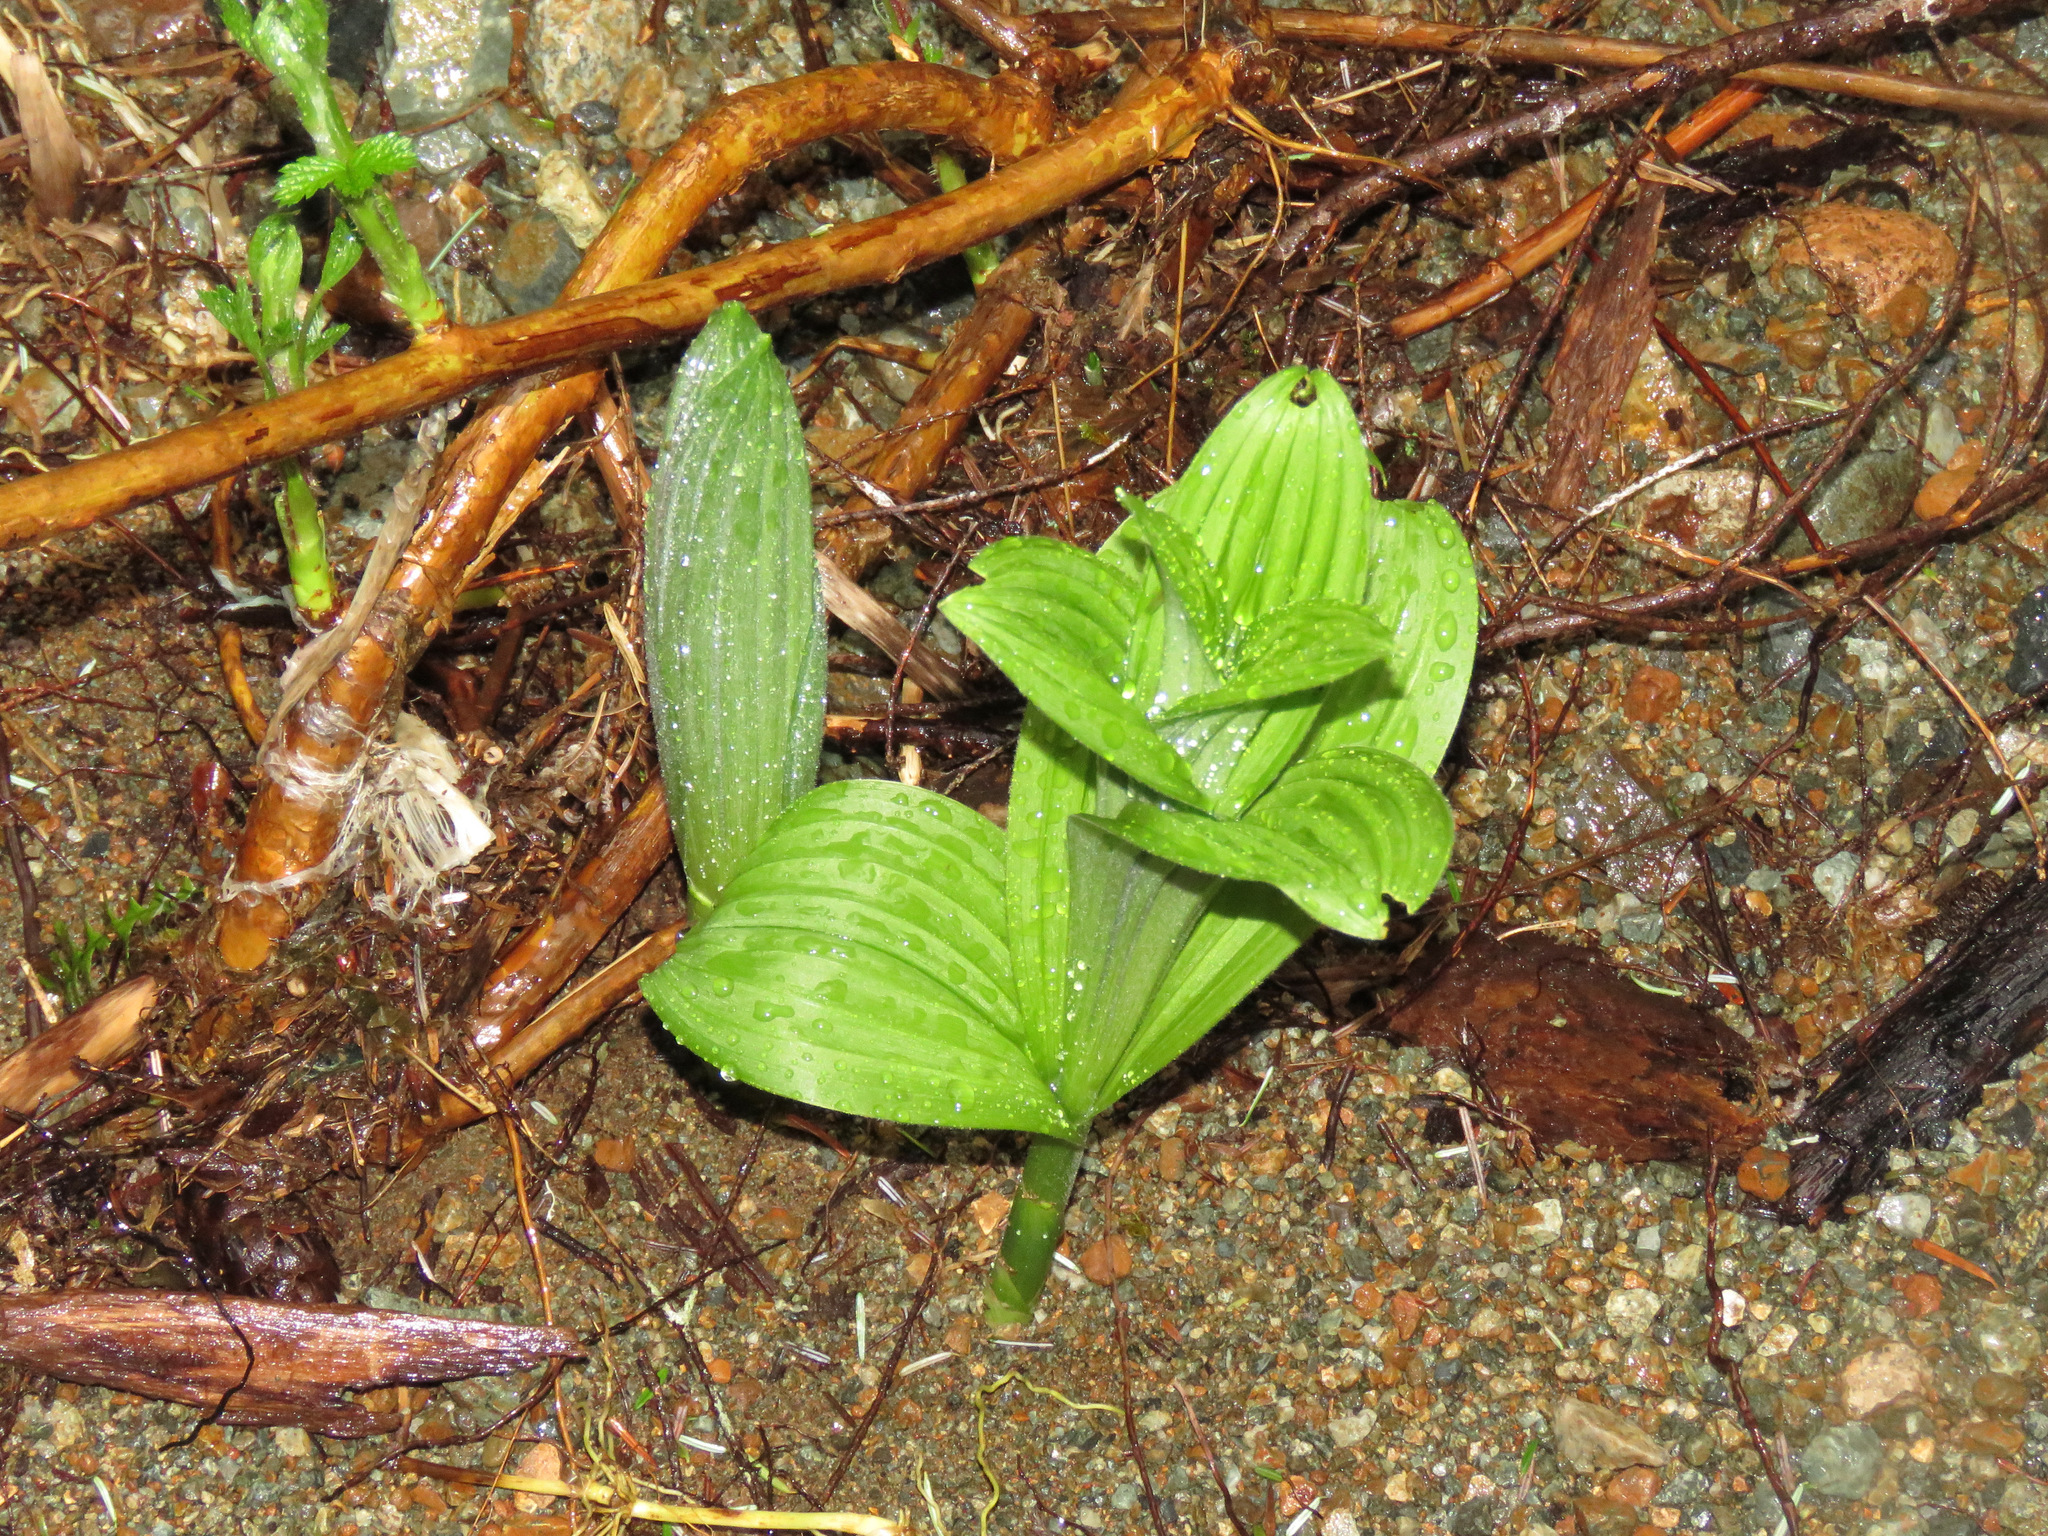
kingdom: Plantae
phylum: Tracheophyta
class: Liliopsida
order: Liliales
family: Melanthiaceae
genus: Veratrum
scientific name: Veratrum viride
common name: American false hellebore
